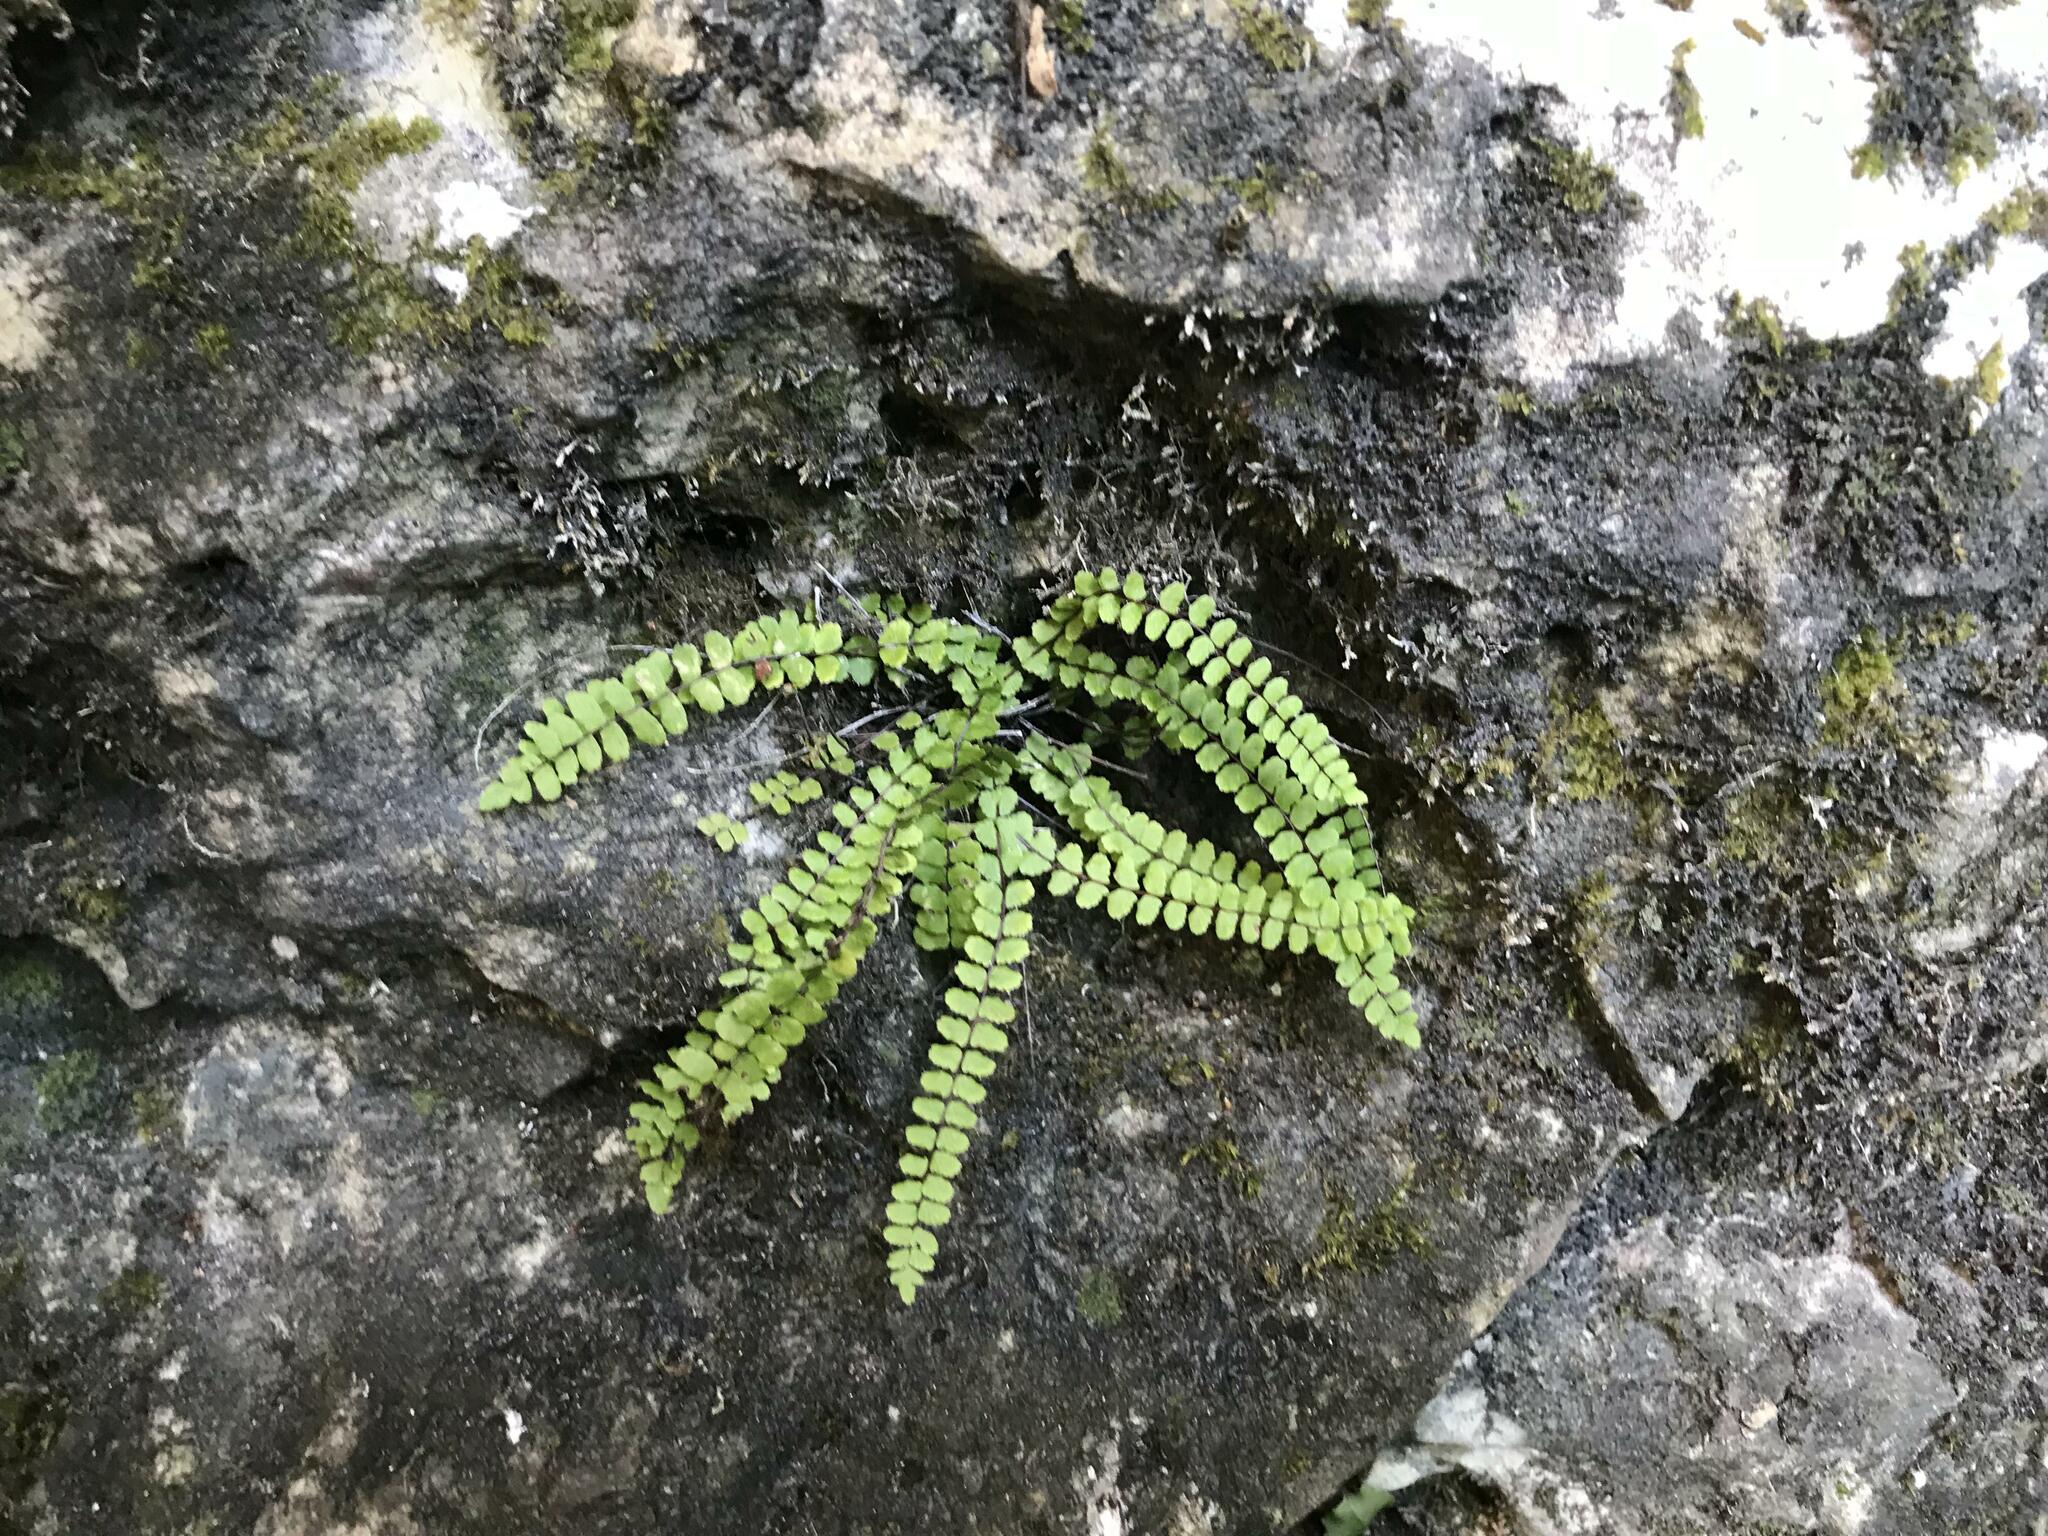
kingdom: Plantae
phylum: Tracheophyta
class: Polypodiopsida
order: Polypodiales
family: Aspleniaceae
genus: Asplenium
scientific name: Asplenium trichomanes
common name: Maidenhair spleenwort
